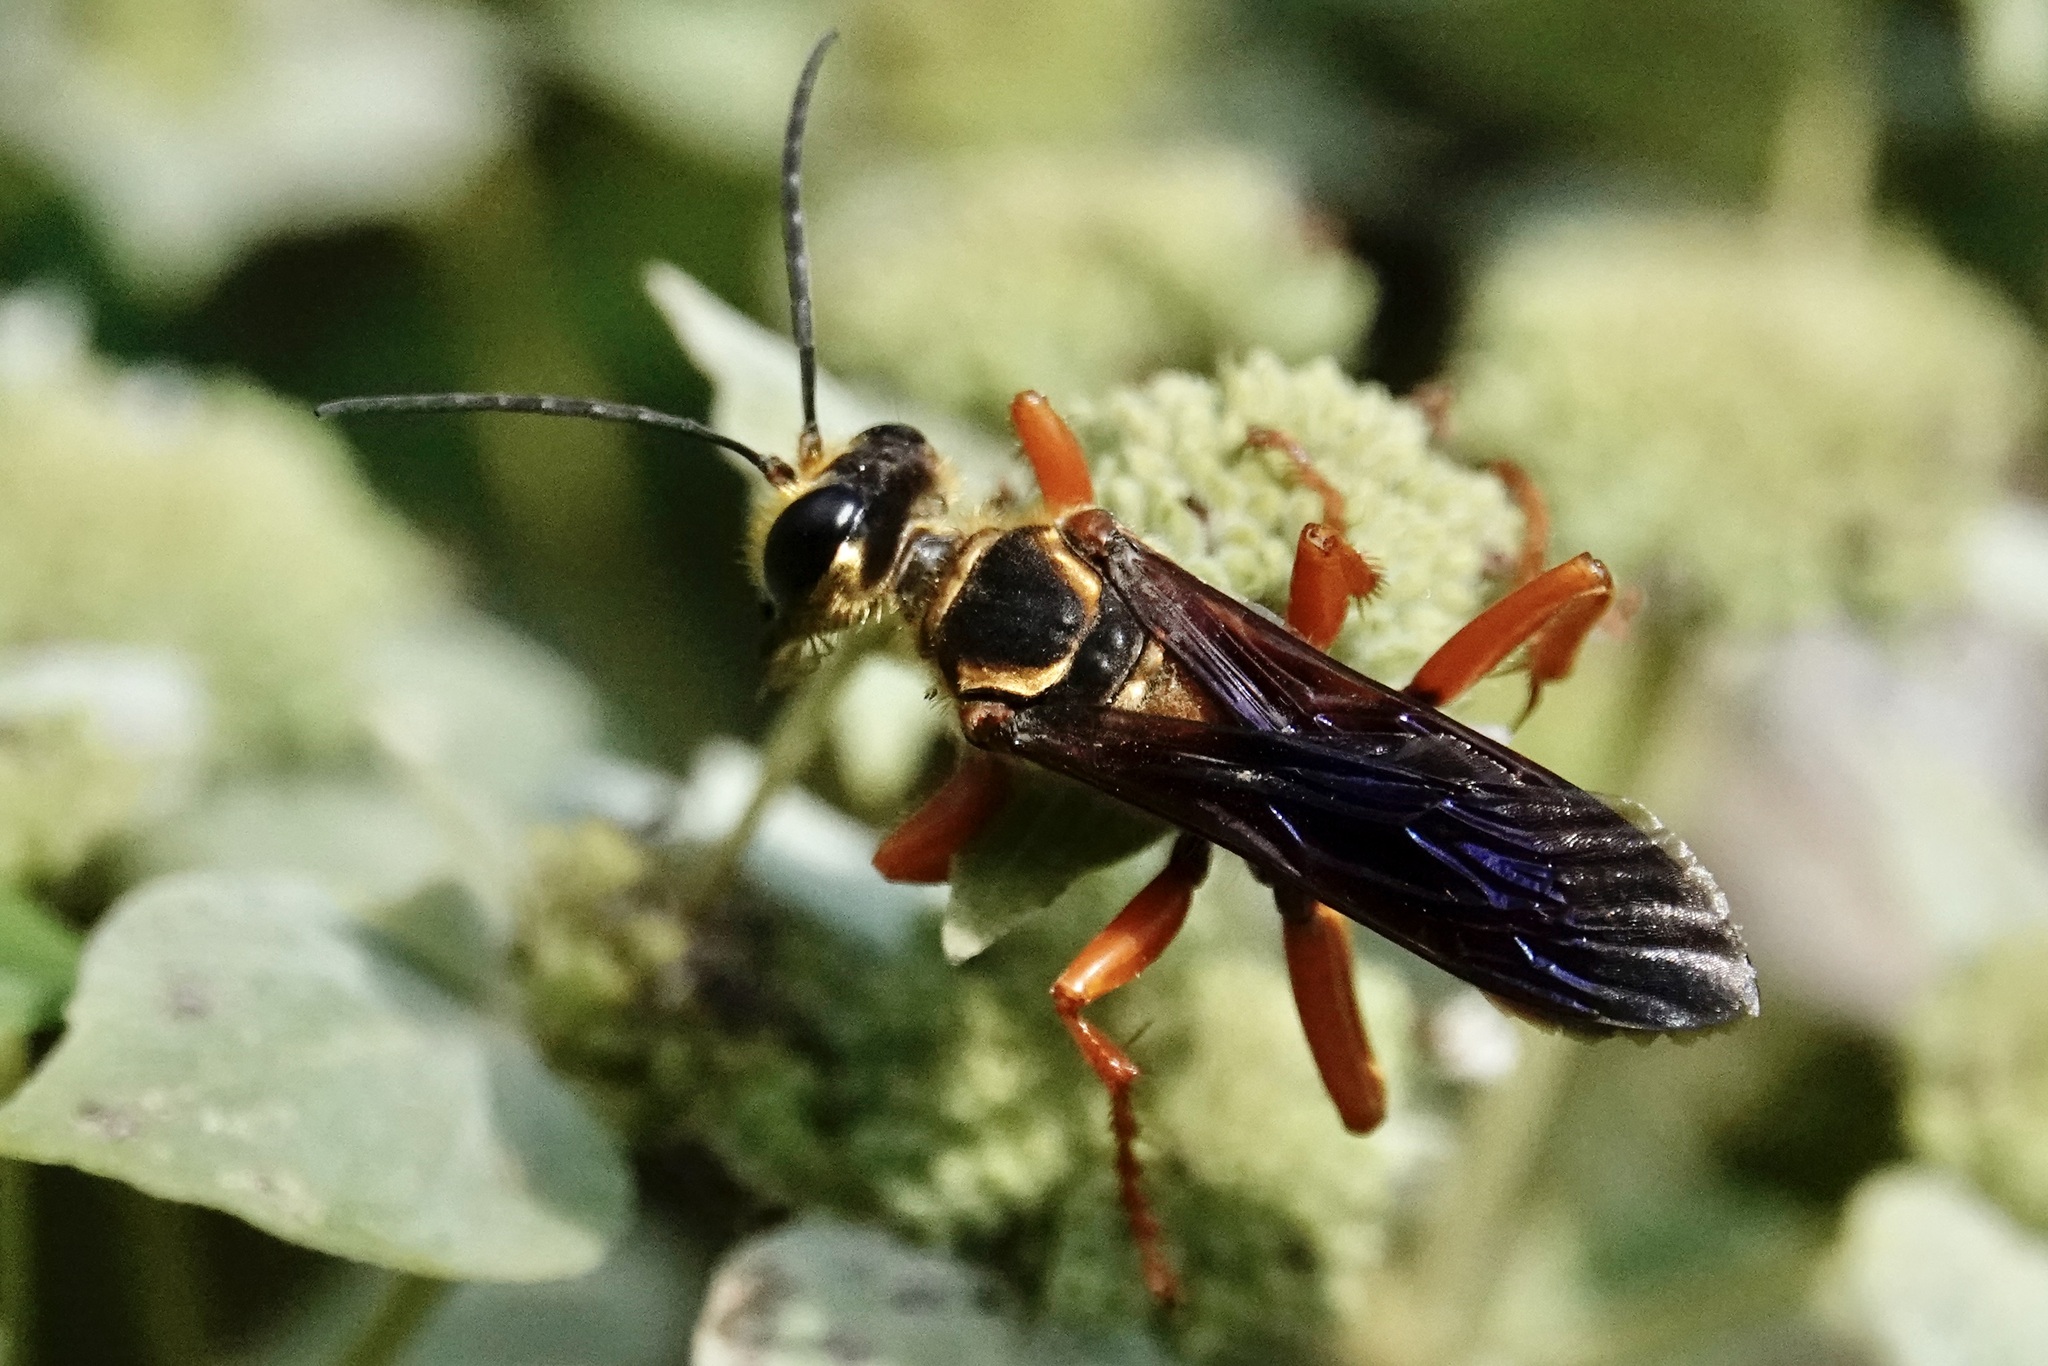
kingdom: Animalia
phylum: Arthropoda
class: Insecta
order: Hymenoptera
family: Sphecidae
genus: Sphex
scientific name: Sphex ichneumoneus
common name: Great golden digger wasp
